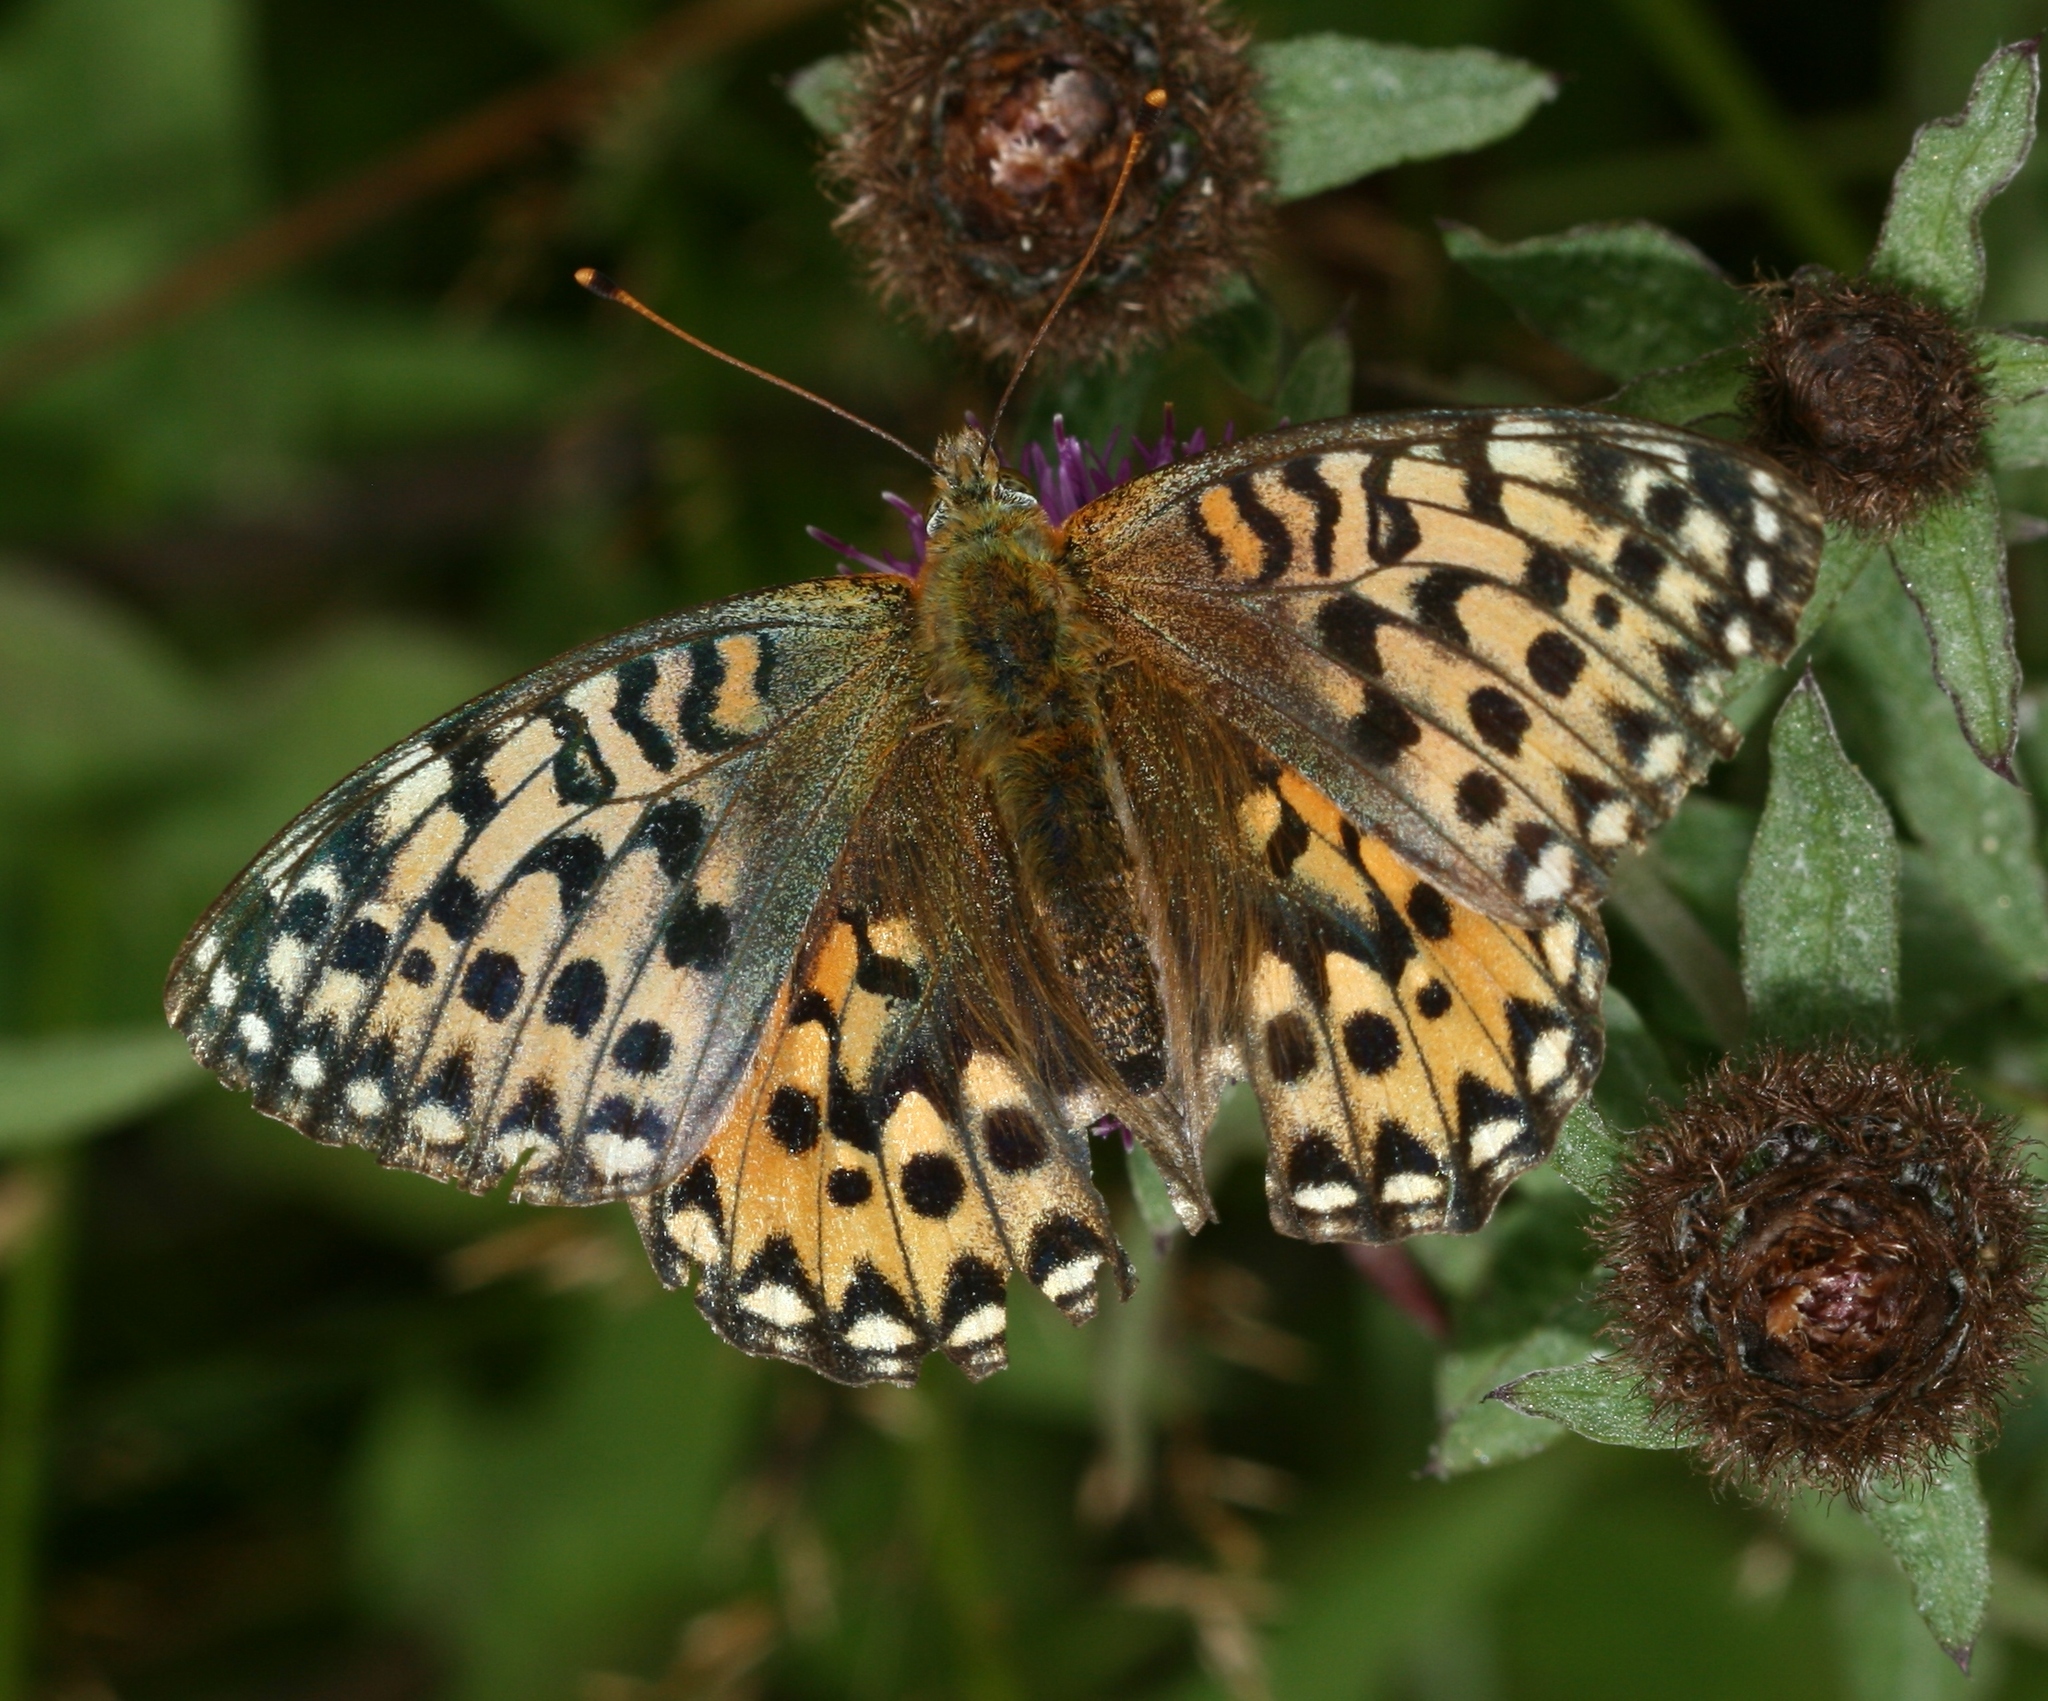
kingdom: Animalia
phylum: Arthropoda
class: Insecta
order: Lepidoptera
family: Nymphalidae
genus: Speyeria
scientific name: Speyeria aglaja
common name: Dark green fritillary
